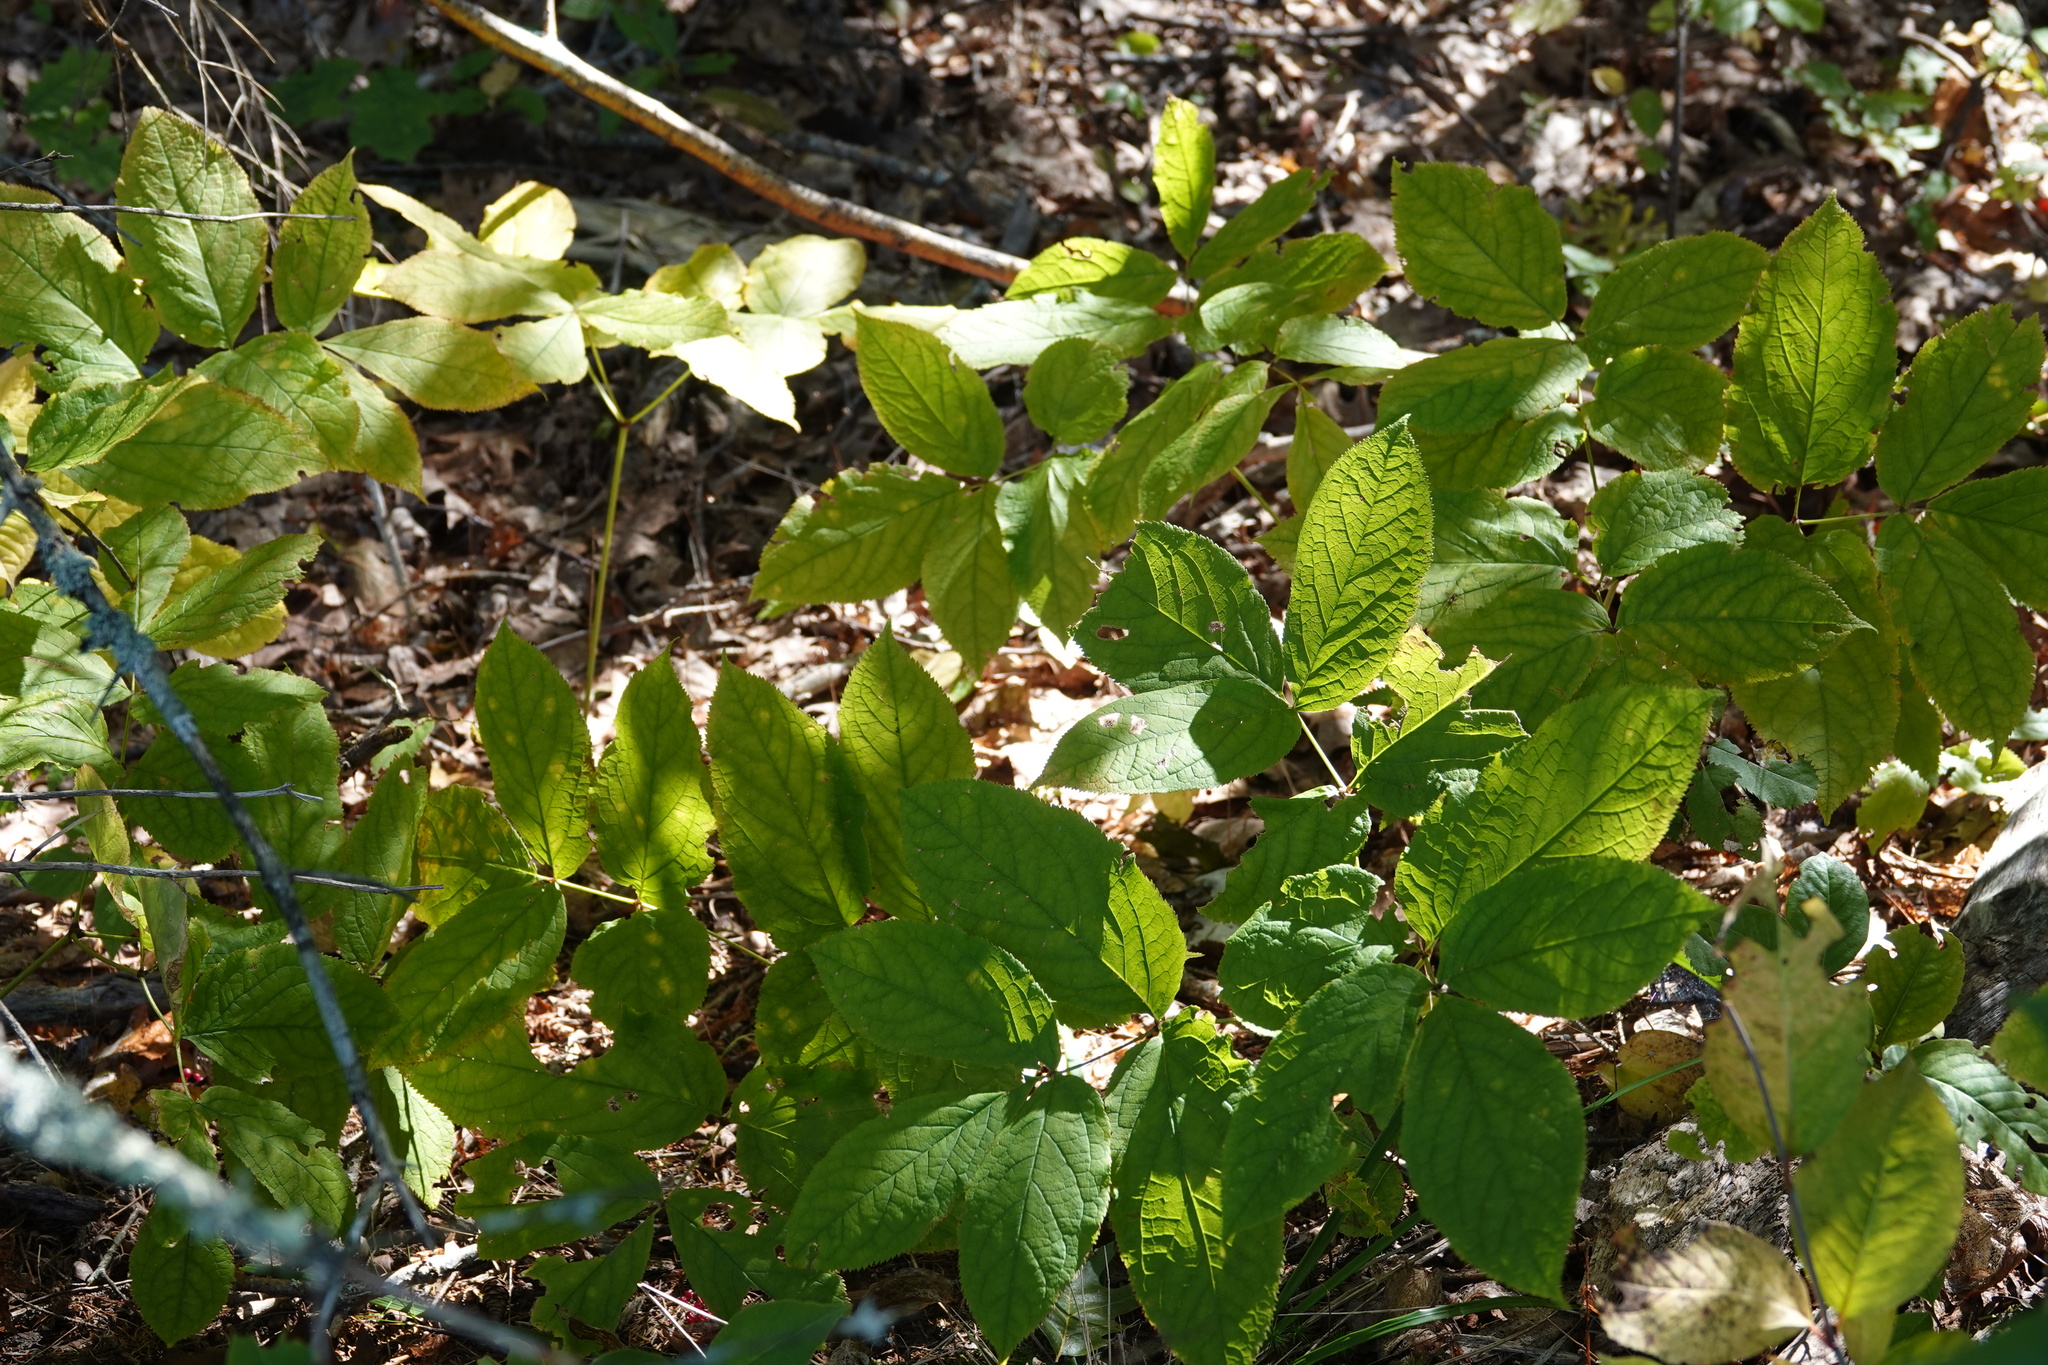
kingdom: Plantae
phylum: Tracheophyta
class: Magnoliopsida
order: Apiales
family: Araliaceae
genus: Aralia
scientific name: Aralia nudicaulis
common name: Wild sarsaparilla
